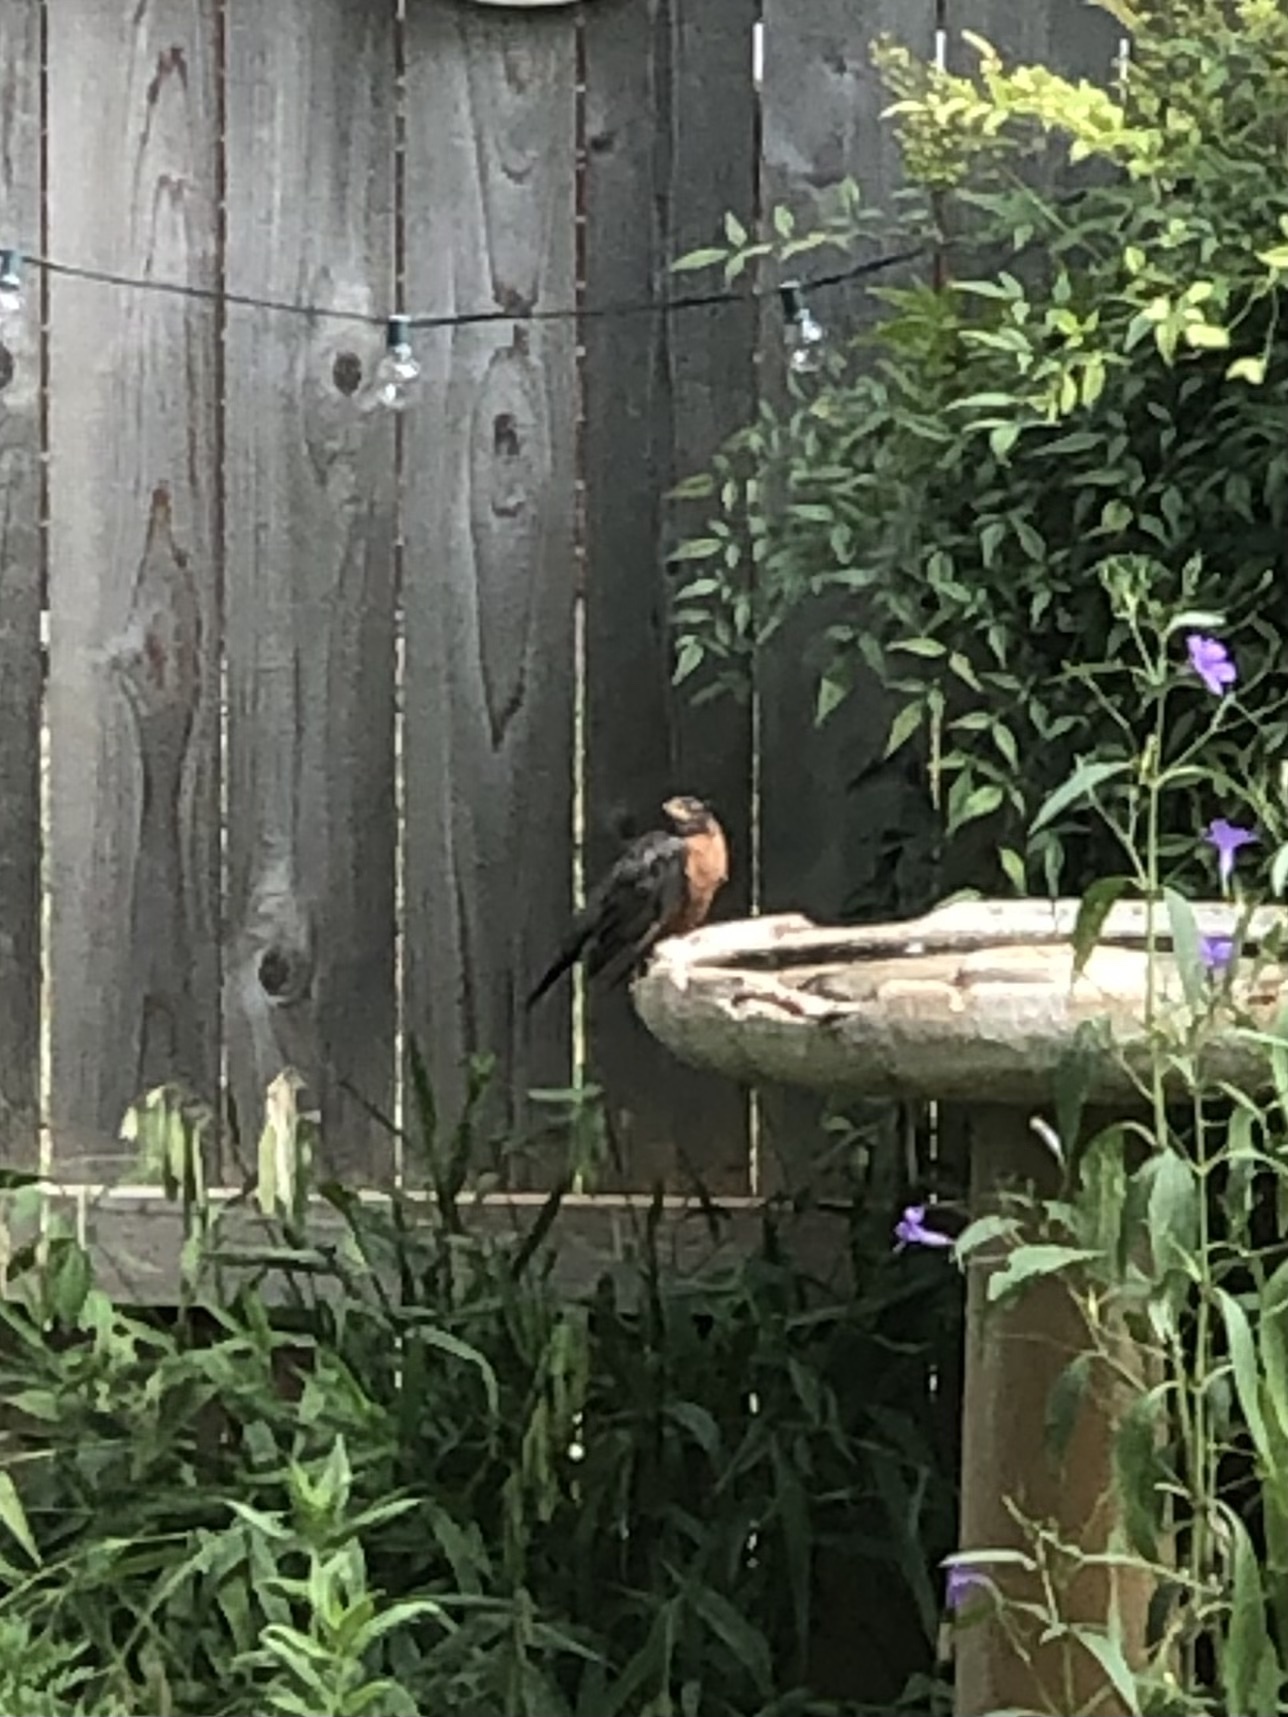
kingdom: Animalia
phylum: Chordata
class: Aves
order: Passeriformes
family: Turdidae
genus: Turdus
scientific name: Turdus migratorius
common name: American robin
